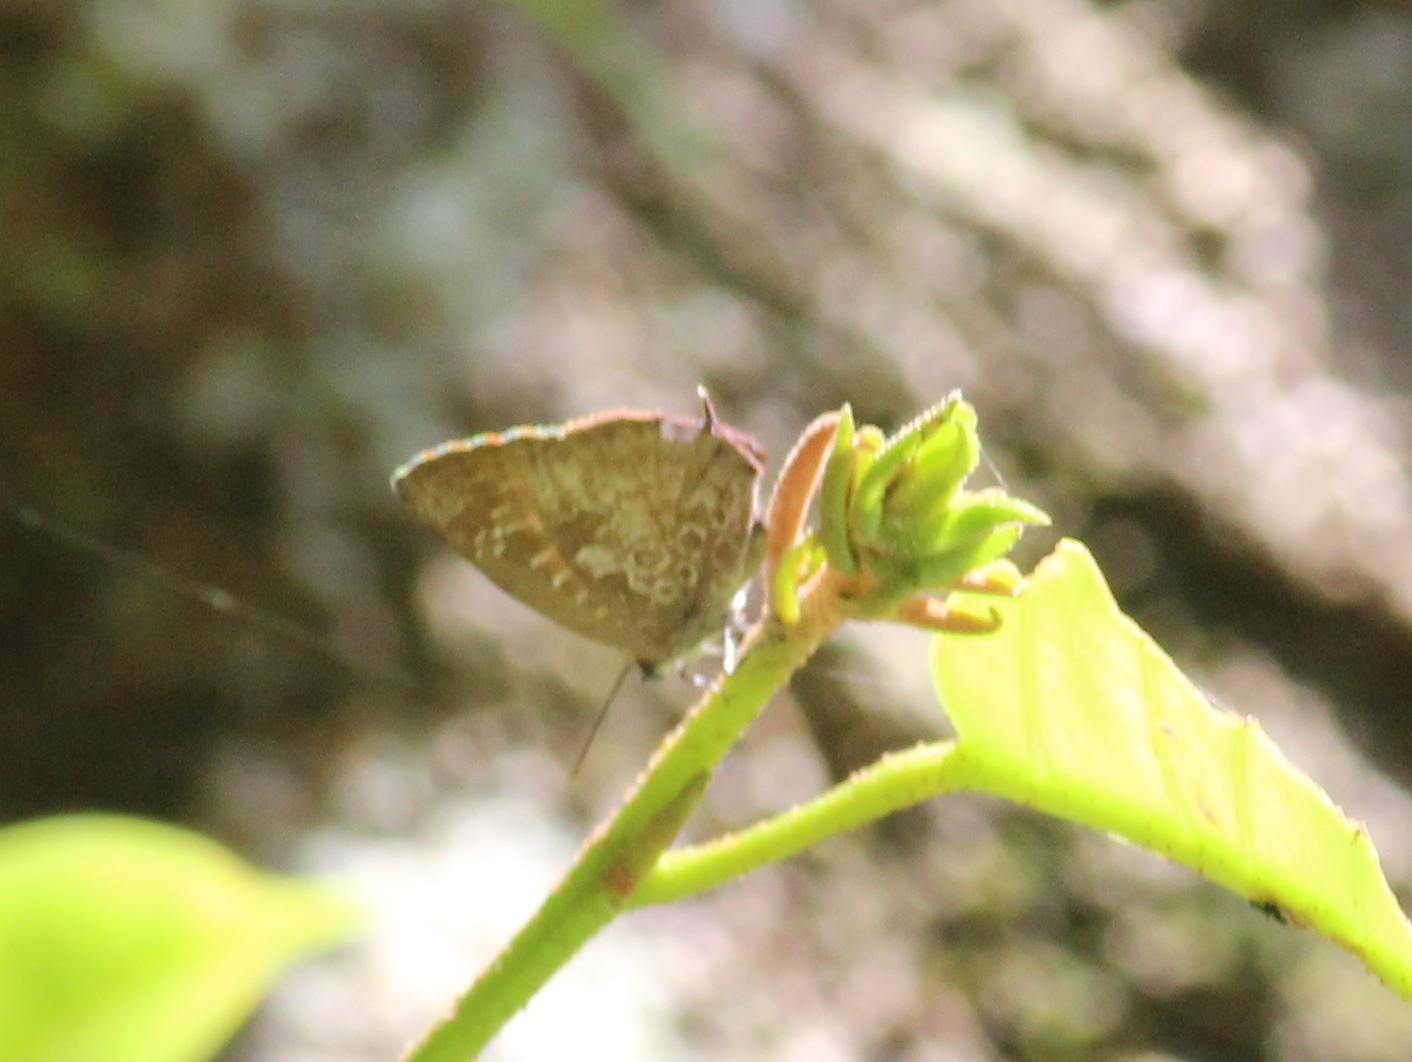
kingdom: Animalia
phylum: Arthropoda
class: Insecta
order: Lepidoptera
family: Lycaenidae
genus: Arhopala
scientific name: Arhopala bazaloides
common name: Tamil oakblue
